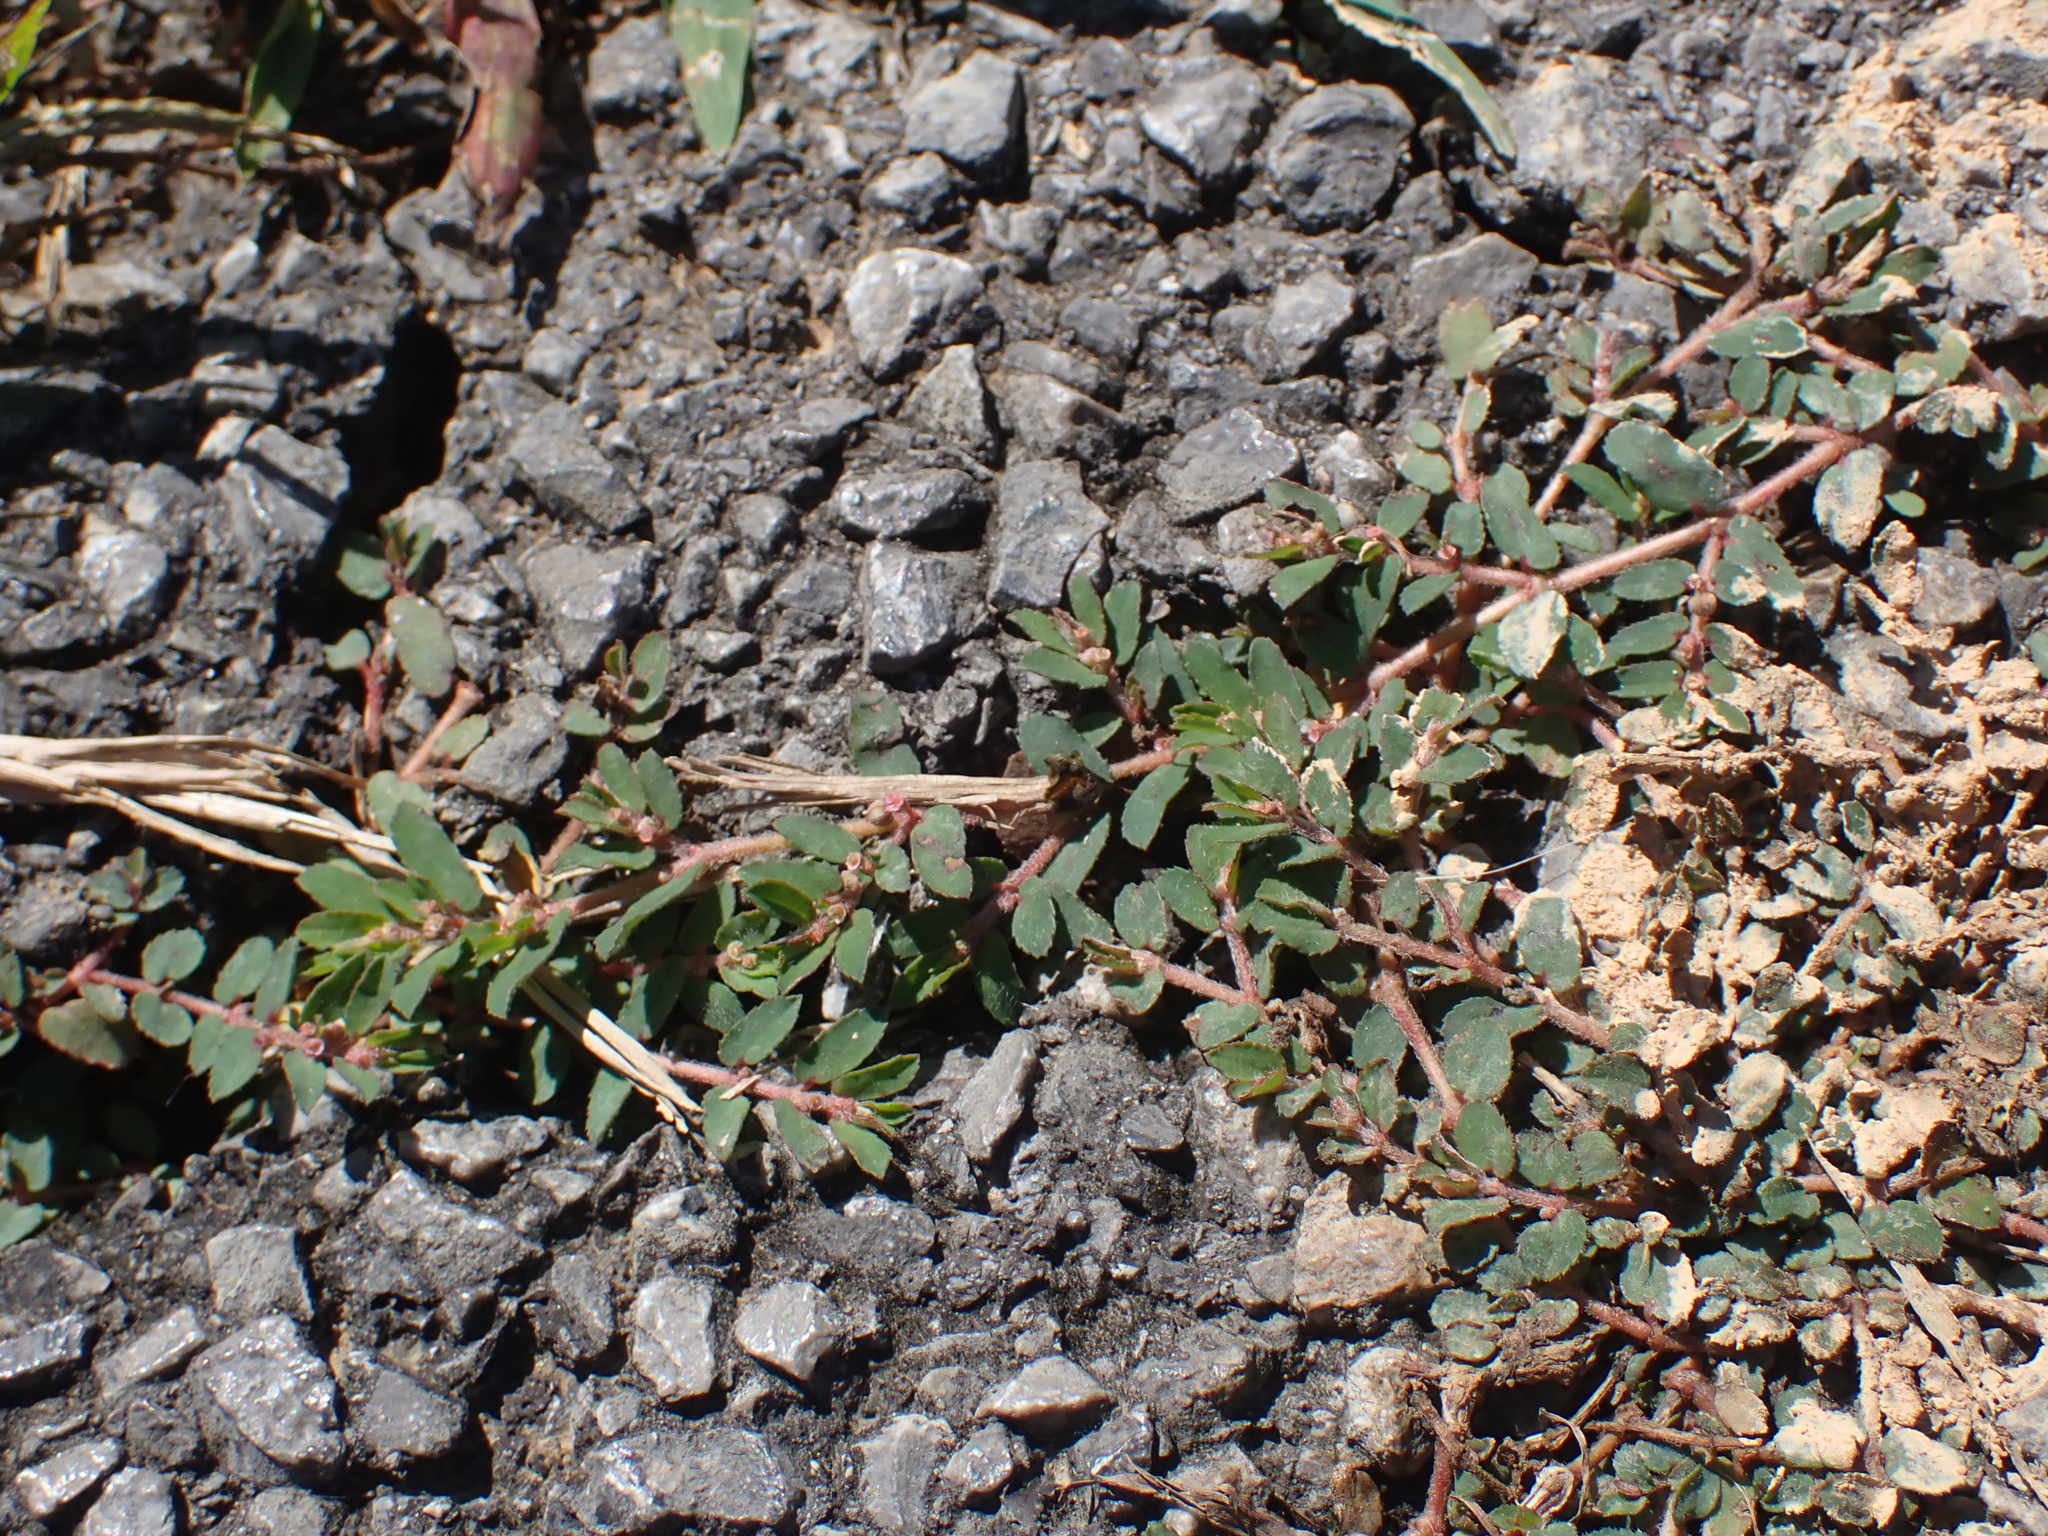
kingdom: Plantae
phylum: Tracheophyta
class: Magnoliopsida
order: Malpighiales
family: Euphorbiaceae
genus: Euphorbia
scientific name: Euphorbia maculata
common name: Spotted spurge
